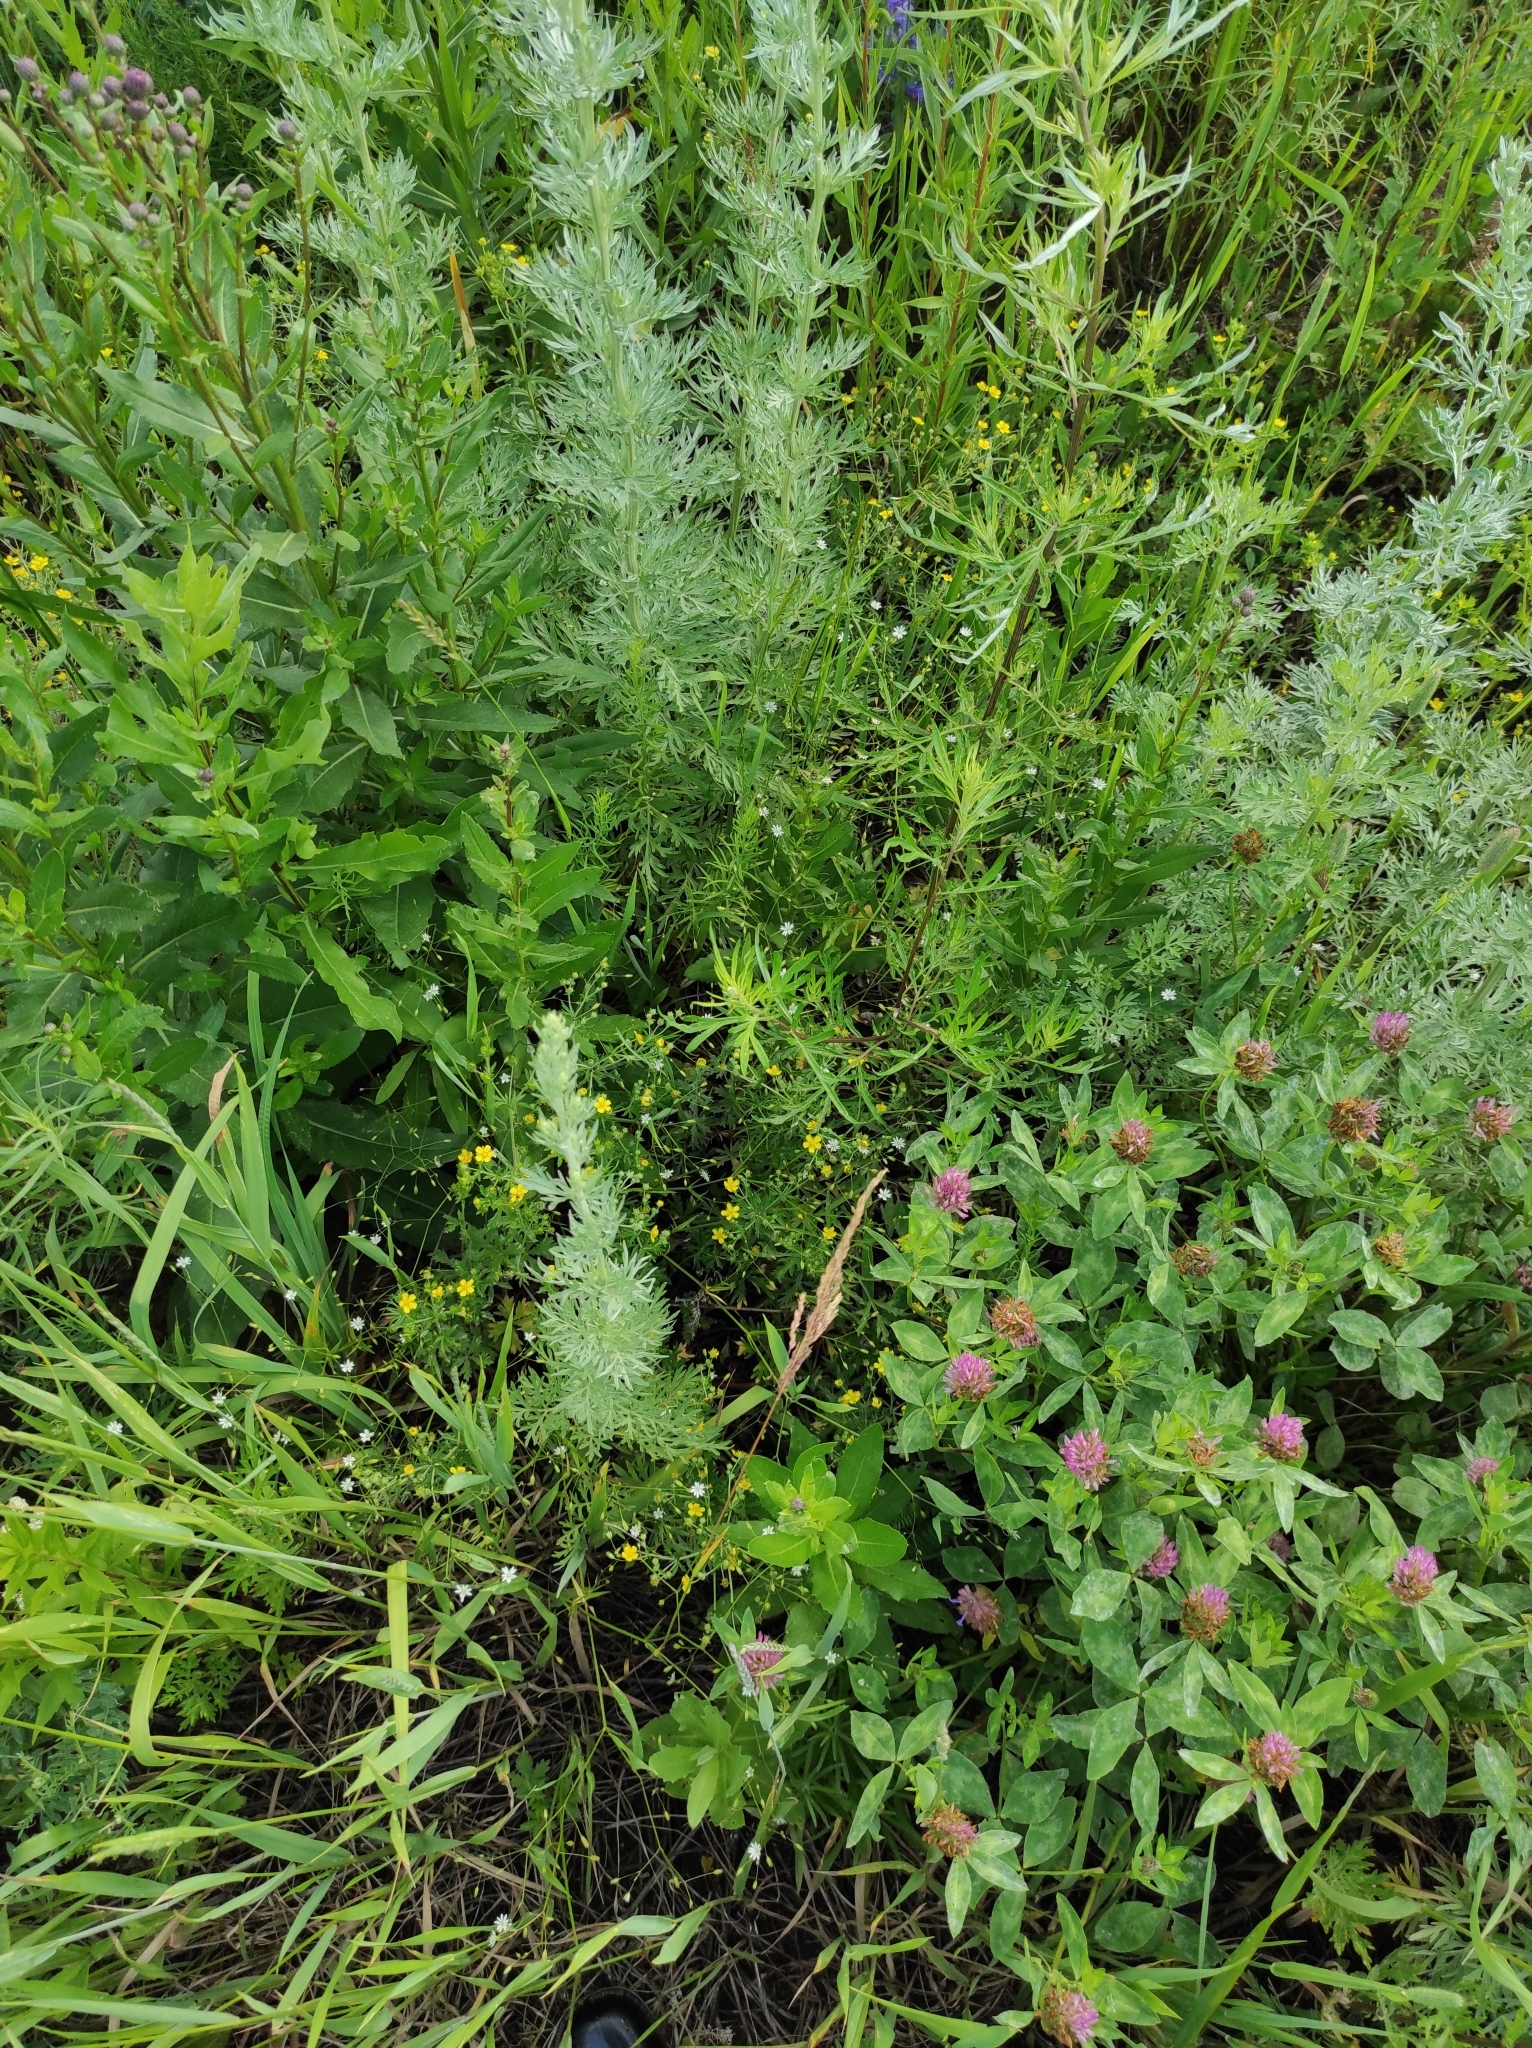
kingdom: Plantae
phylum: Tracheophyta
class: Magnoliopsida
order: Fabales
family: Fabaceae
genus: Trifolium
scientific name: Trifolium pratense
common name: Red clover
